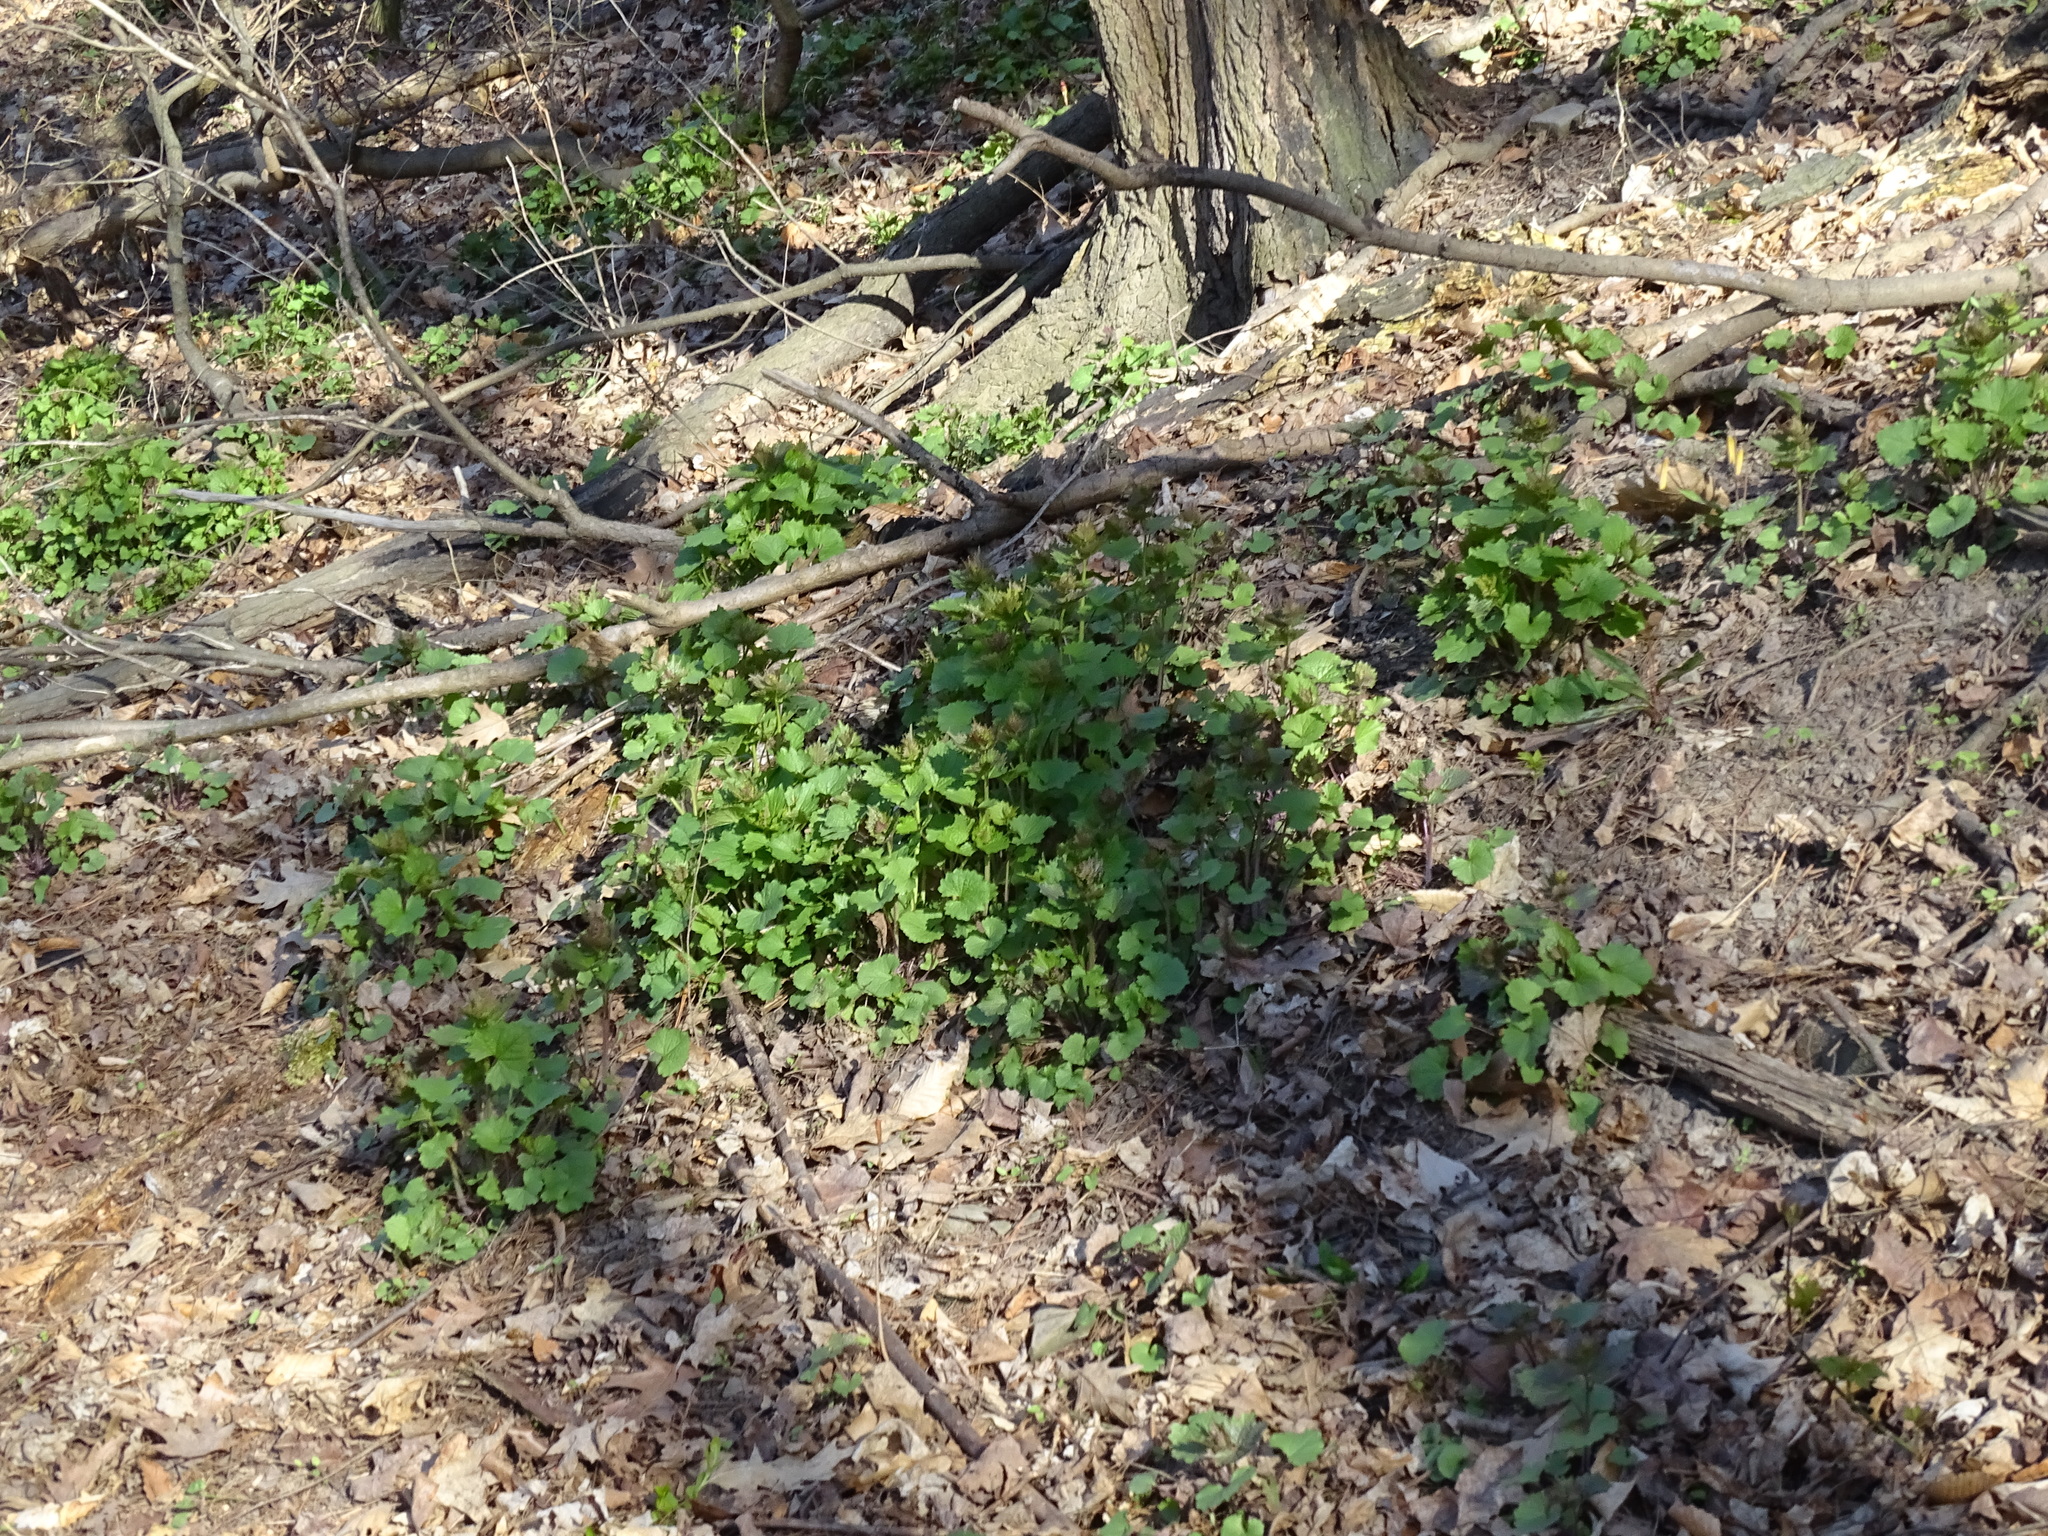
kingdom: Plantae
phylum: Tracheophyta
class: Magnoliopsida
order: Brassicales
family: Brassicaceae
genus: Alliaria
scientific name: Alliaria petiolata
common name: Garlic mustard
